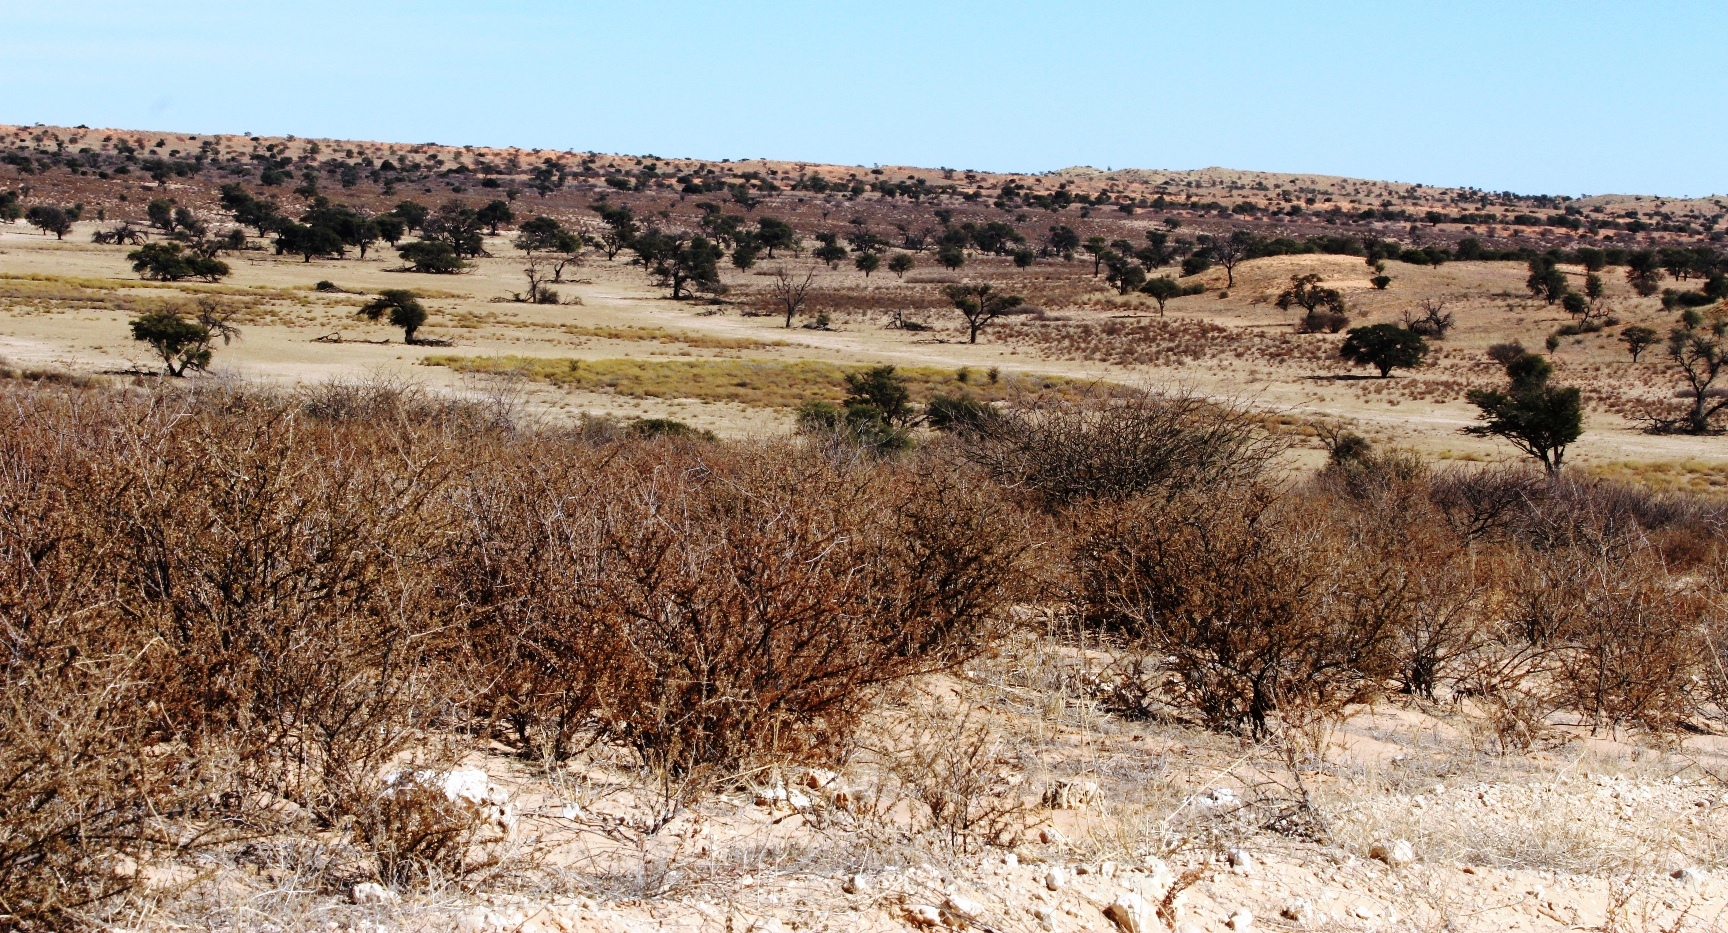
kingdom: Plantae
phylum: Tracheophyta
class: Magnoliopsida
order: Lamiales
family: Bignoniaceae
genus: Rhigozum
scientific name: Rhigozum trichotomum
